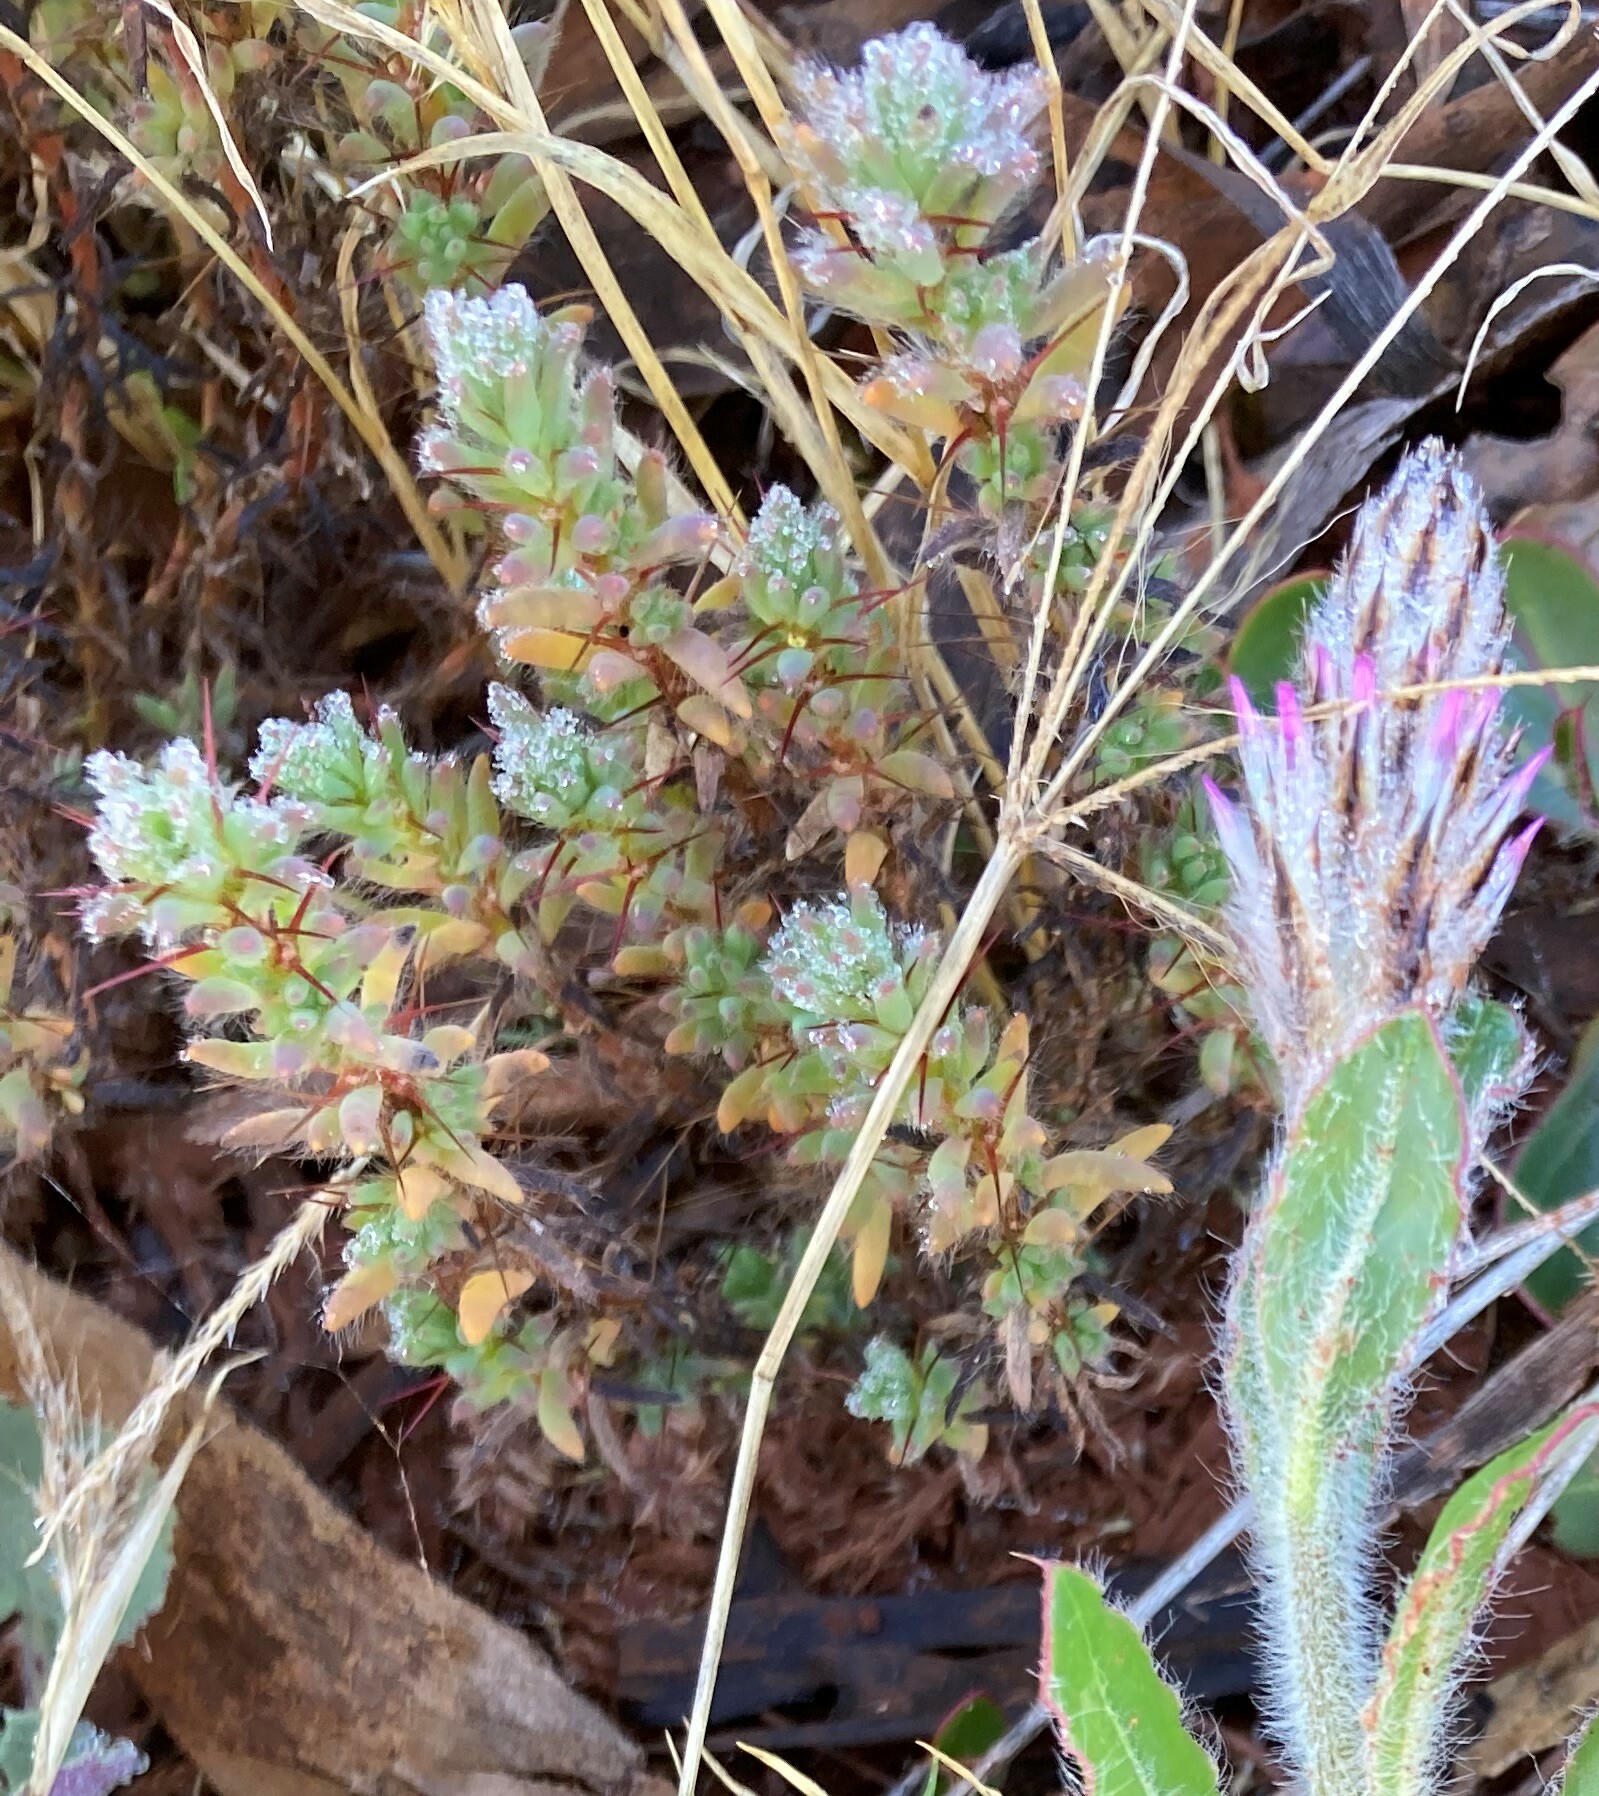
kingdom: Plantae
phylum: Tracheophyta
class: Magnoliopsida
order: Caryophyllales
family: Amaranthaceae
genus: Sclerolaena
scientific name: Sclerolaena obliquicuspis
